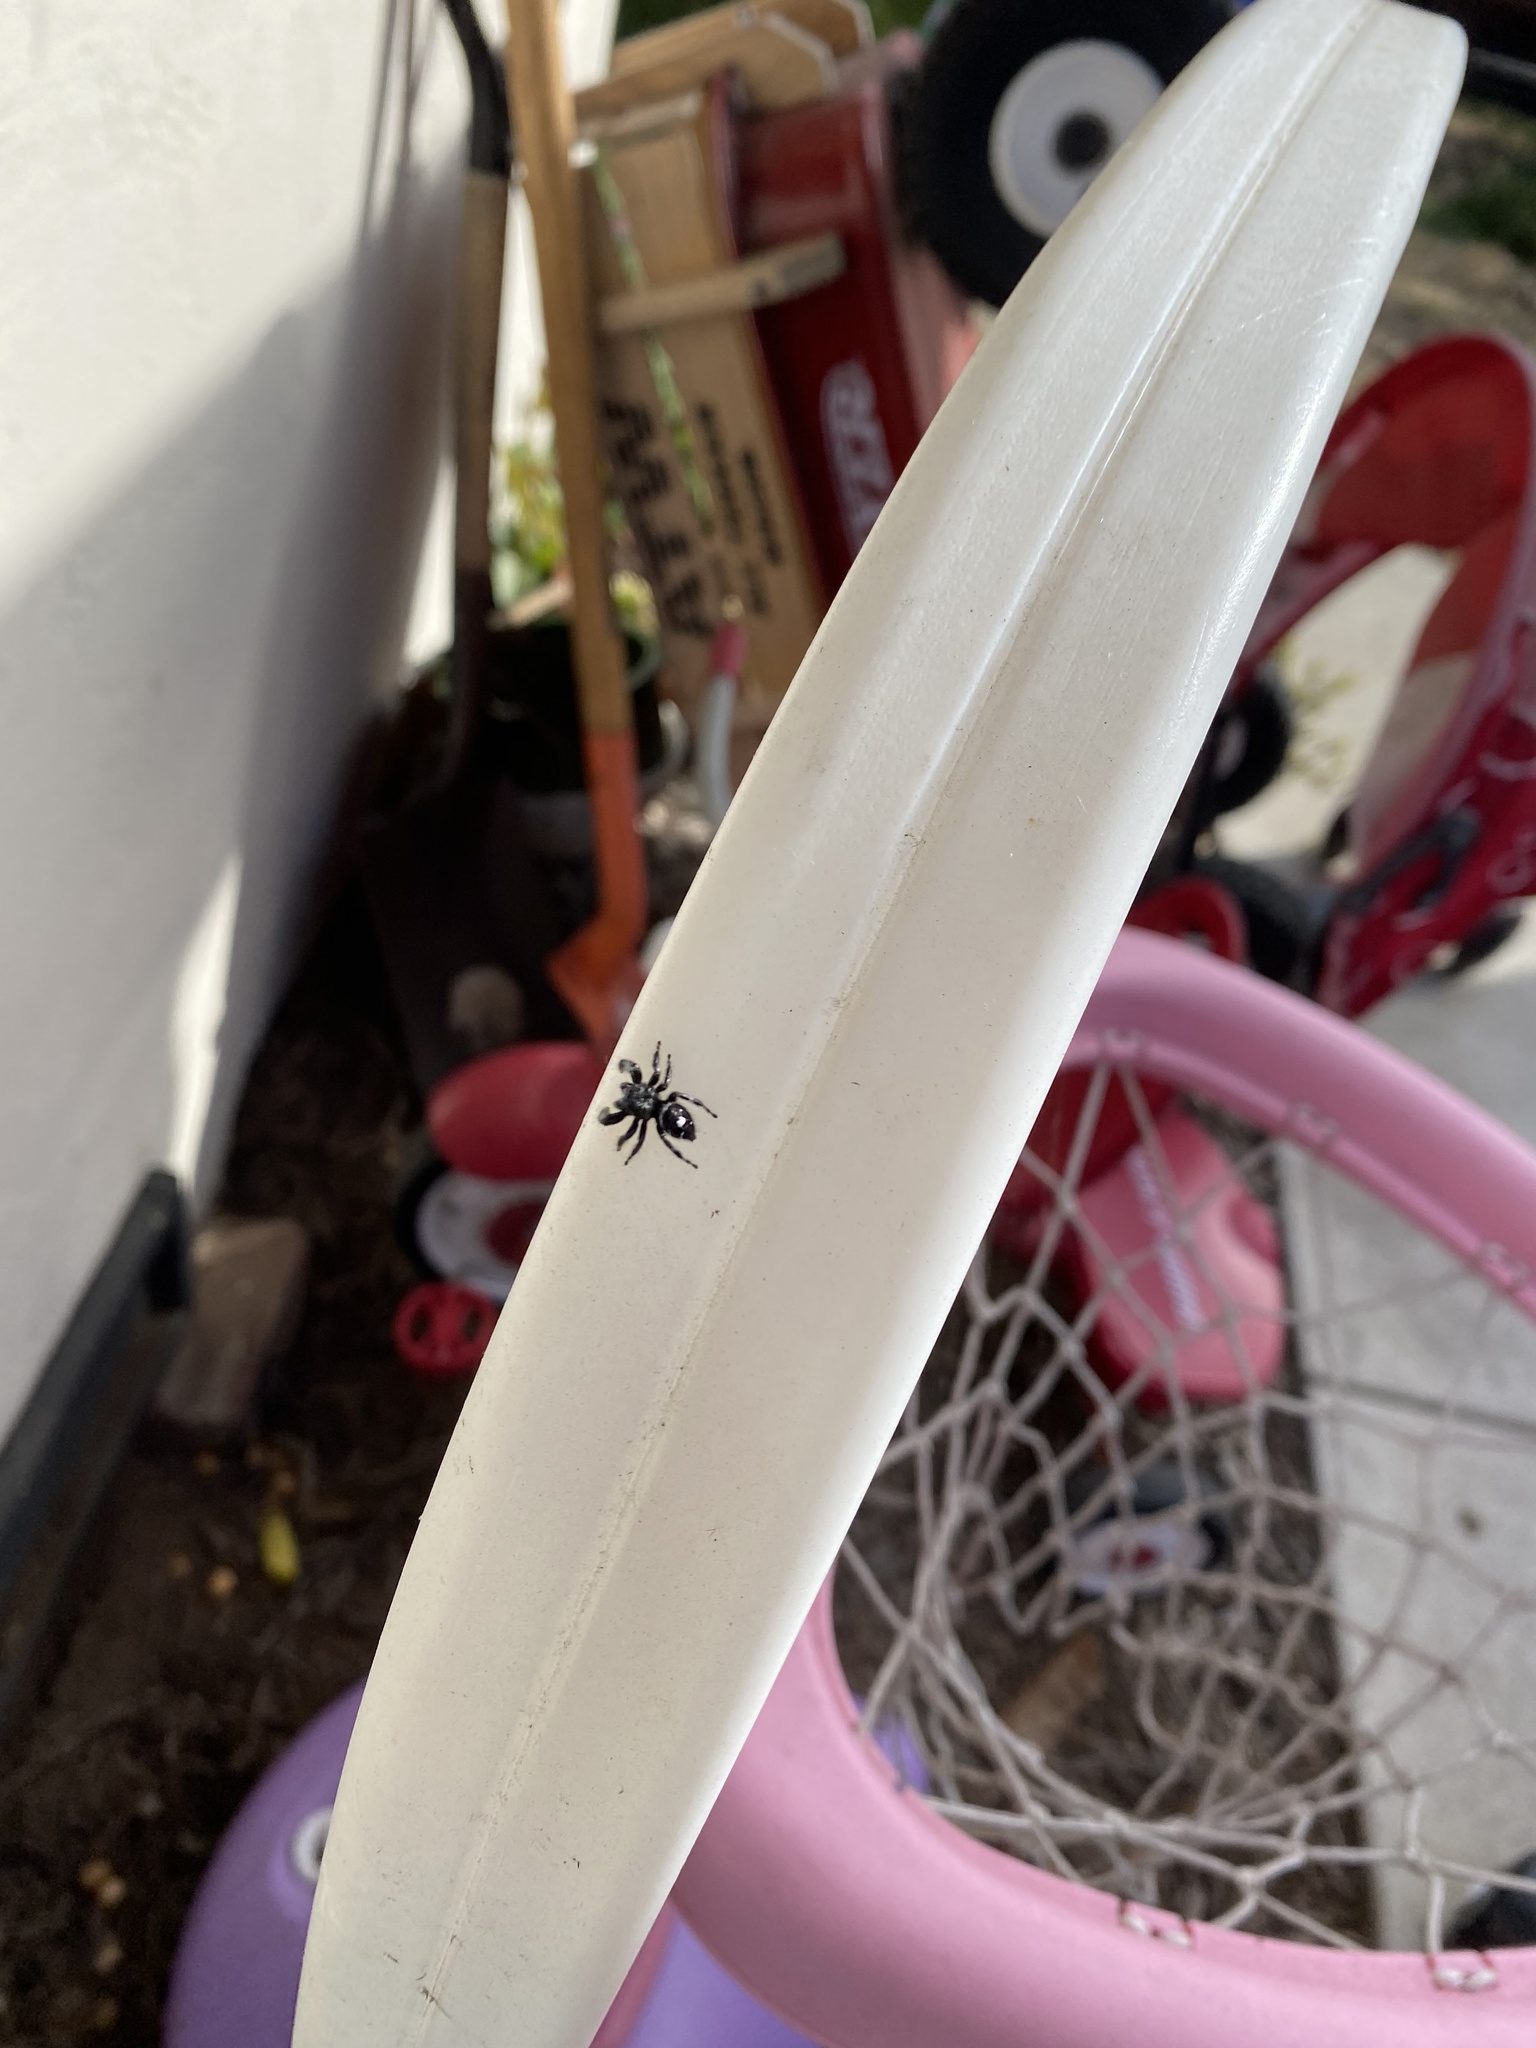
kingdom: Animalia
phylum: Arthropoda
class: Arachnida
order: Araneae
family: Salticidae
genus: Phidippus
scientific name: Phidippus audax
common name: Bold jumper
